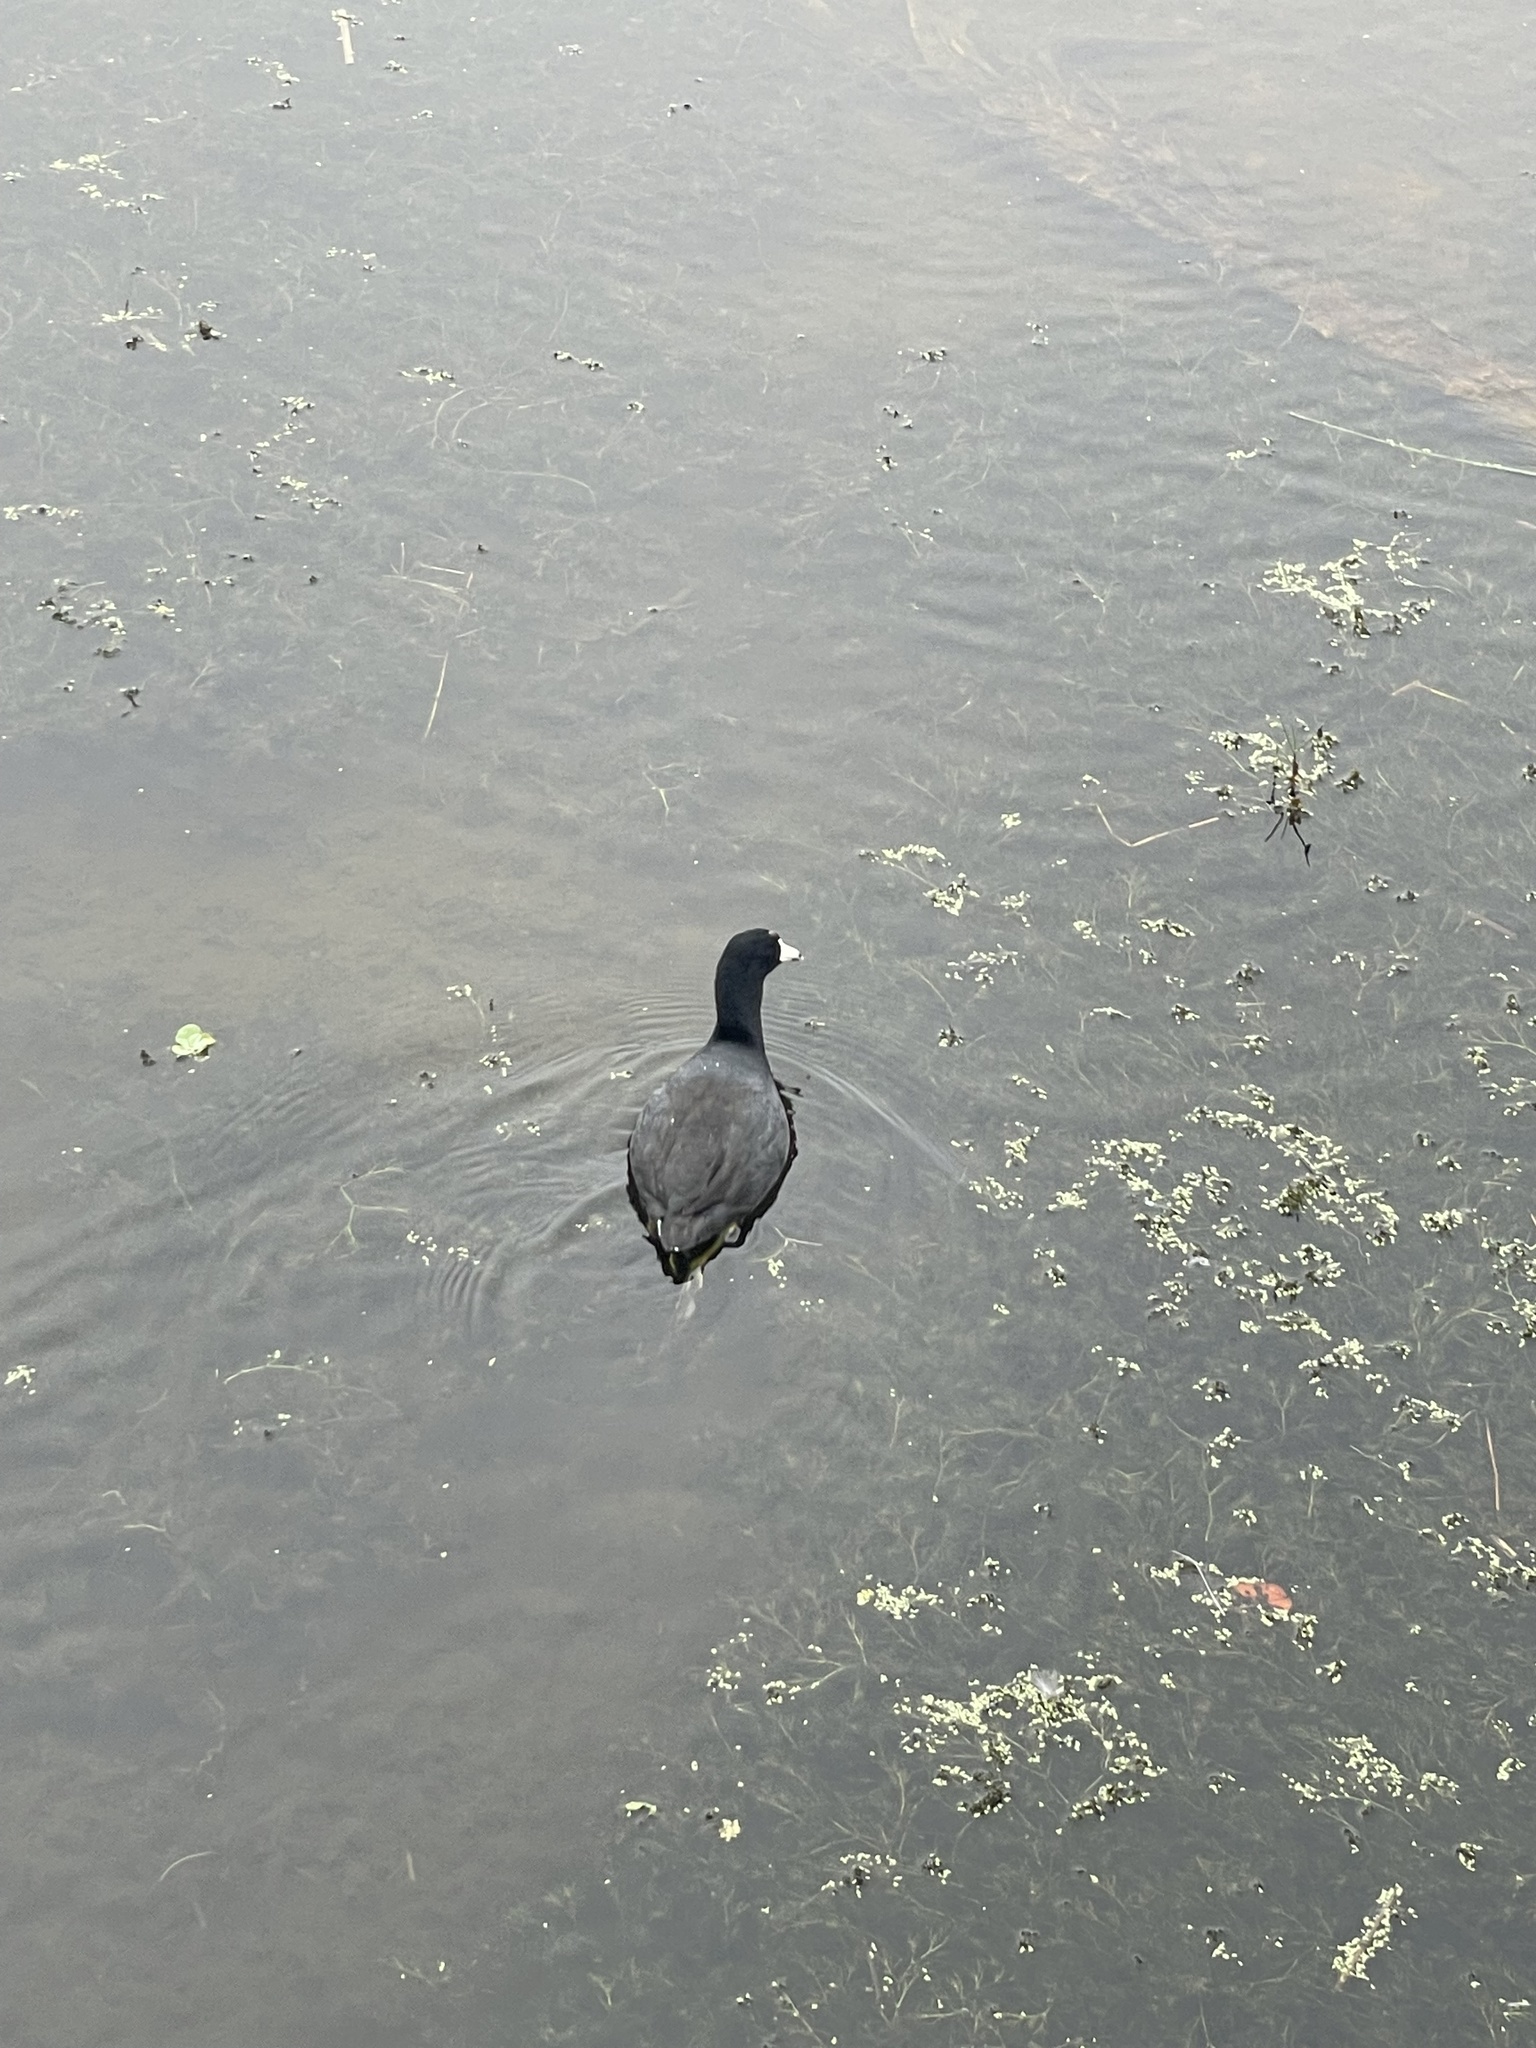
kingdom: Animalia
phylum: Chordata
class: Aves
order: Gruiformes
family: Rallidae
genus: Fulica
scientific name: Fulica americana
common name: American coot
